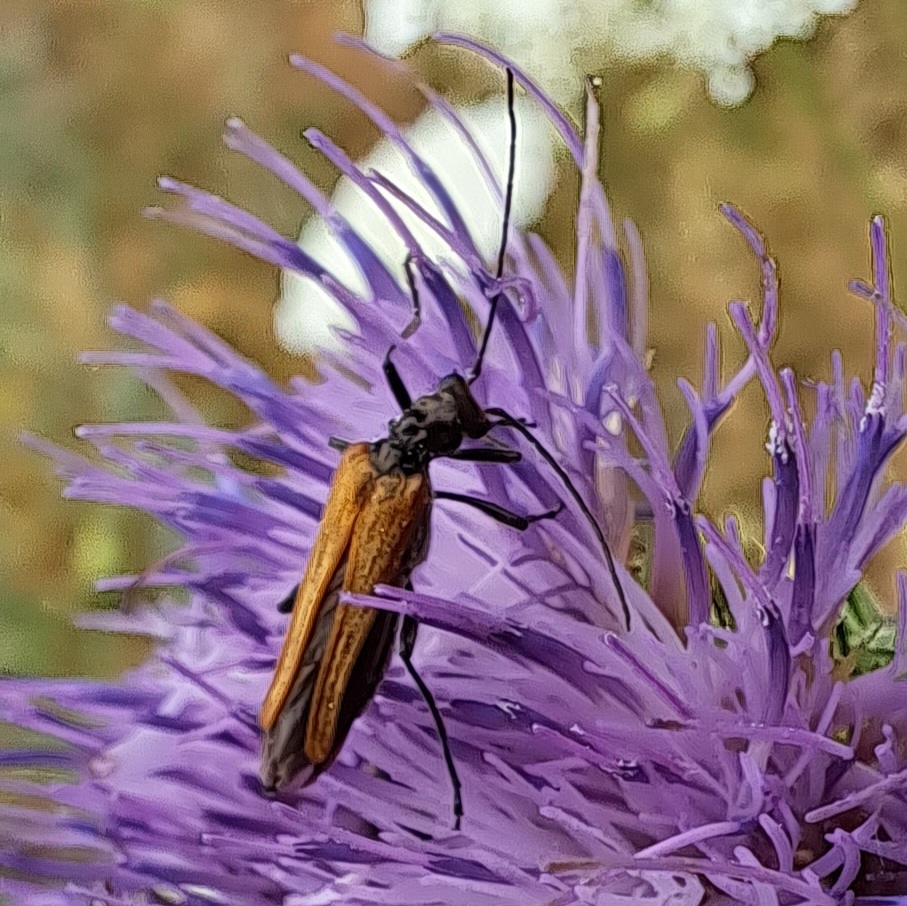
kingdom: Animalia
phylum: Arthropoda
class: Insecta
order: Coleoptera
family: Oedemeridae
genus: Oedemera
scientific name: Oedemera femorata
